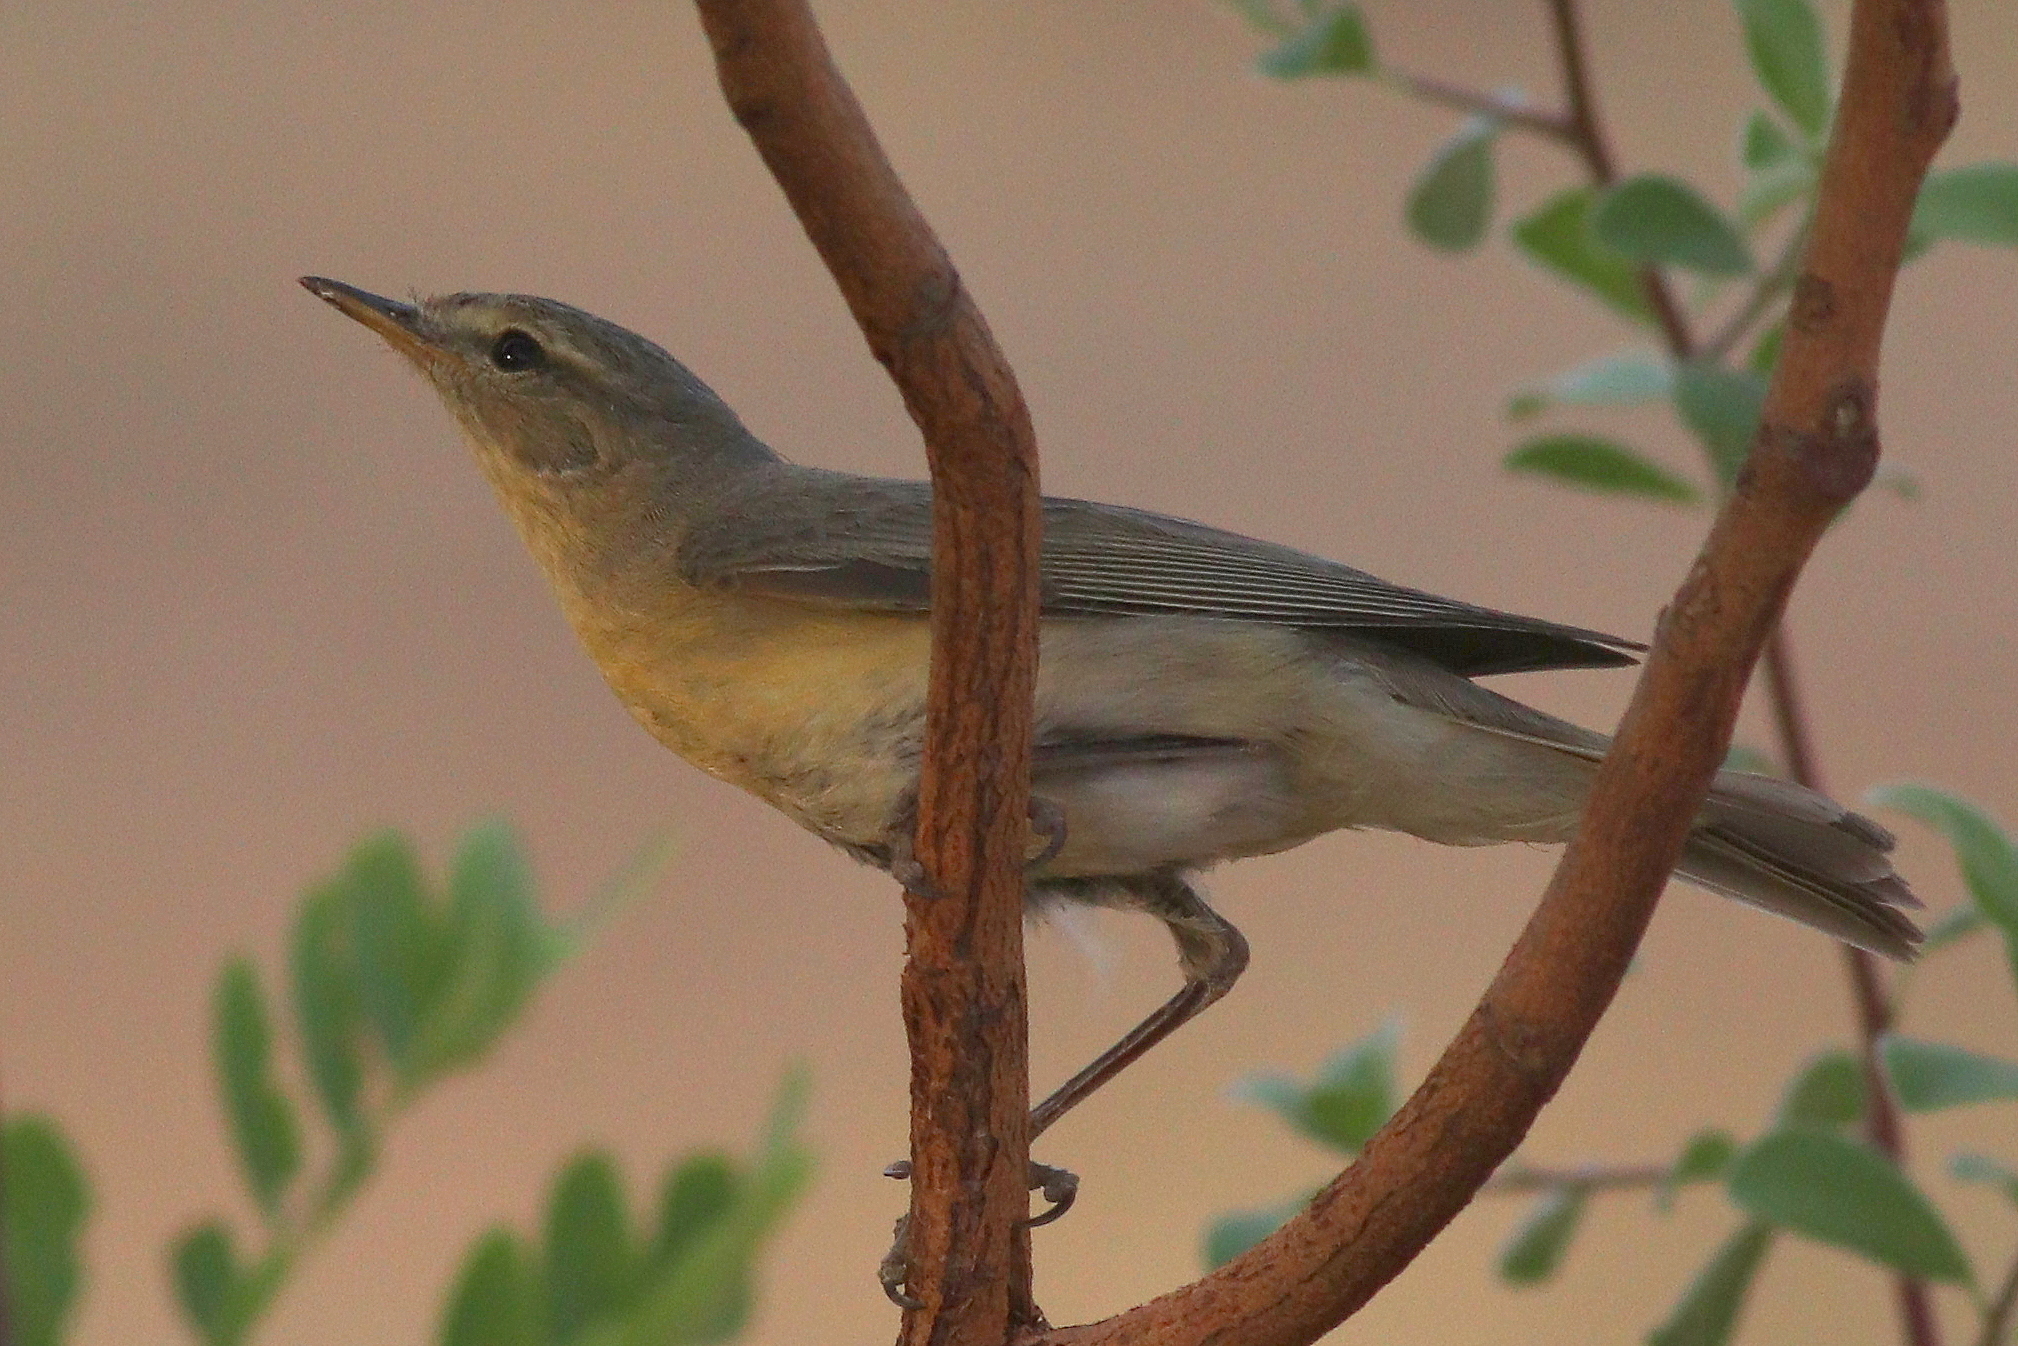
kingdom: Animalia
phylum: Chordata
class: Aves
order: Passeriformes
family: Phylloscopidae
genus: Phylloscopus
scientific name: Phylloscopus trochilus
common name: Willow warbler
